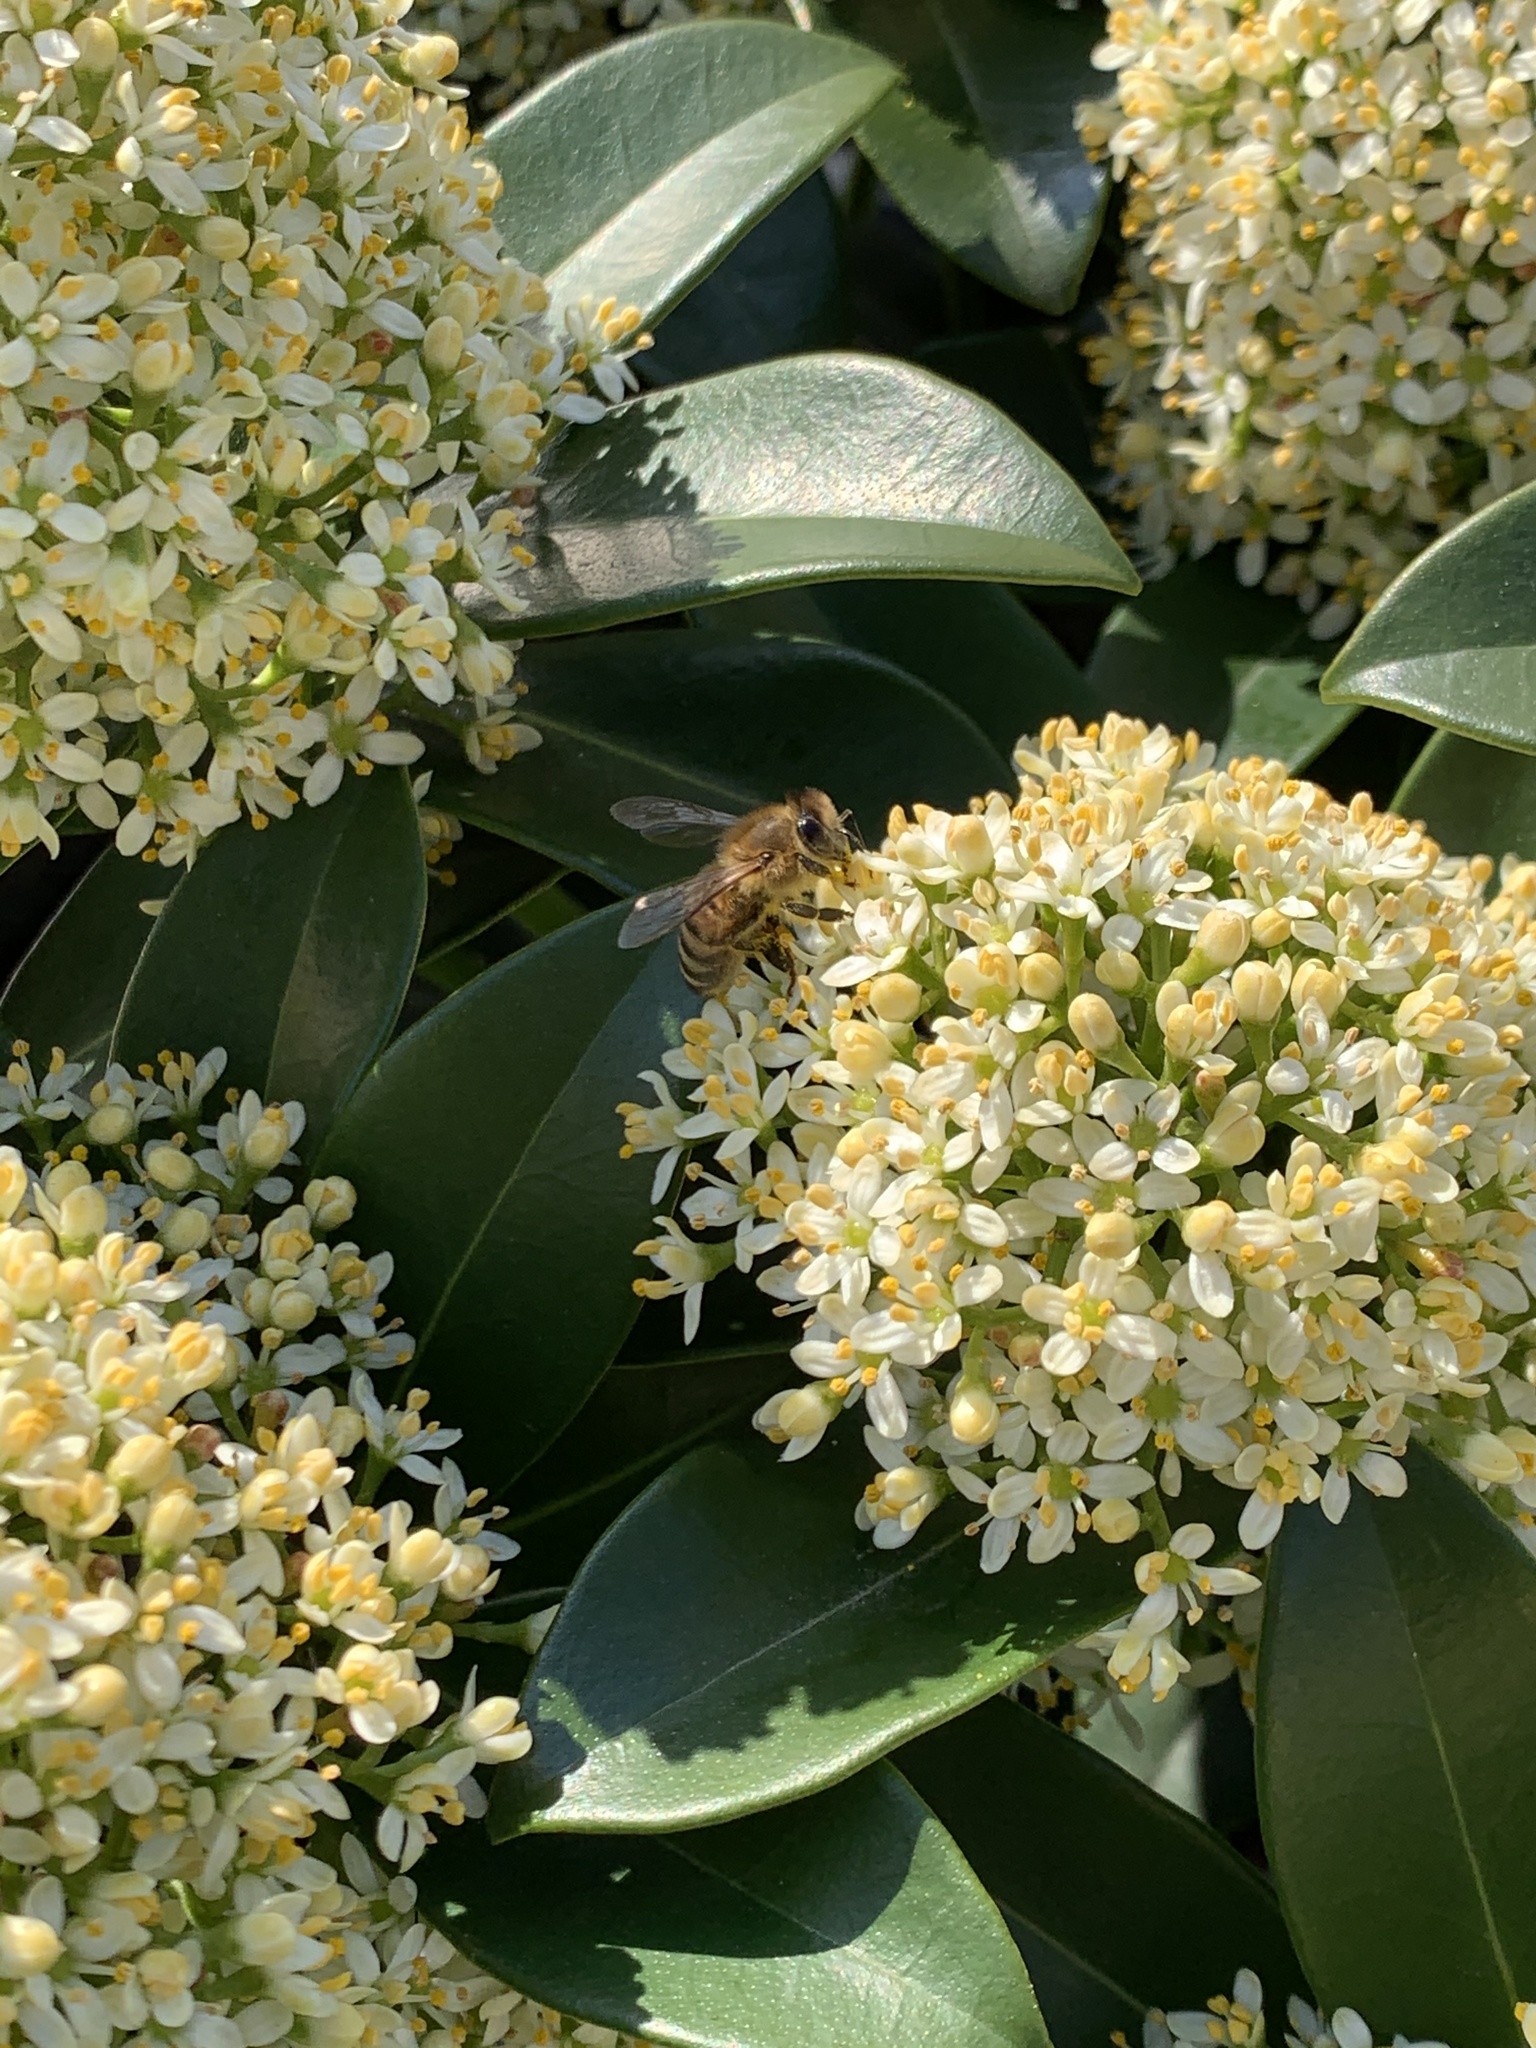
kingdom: Animalia
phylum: Arthropoda
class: Insecta
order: Hymenoptera
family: Apidae
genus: Apis
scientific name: Apis mellifera
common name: Honey bee
